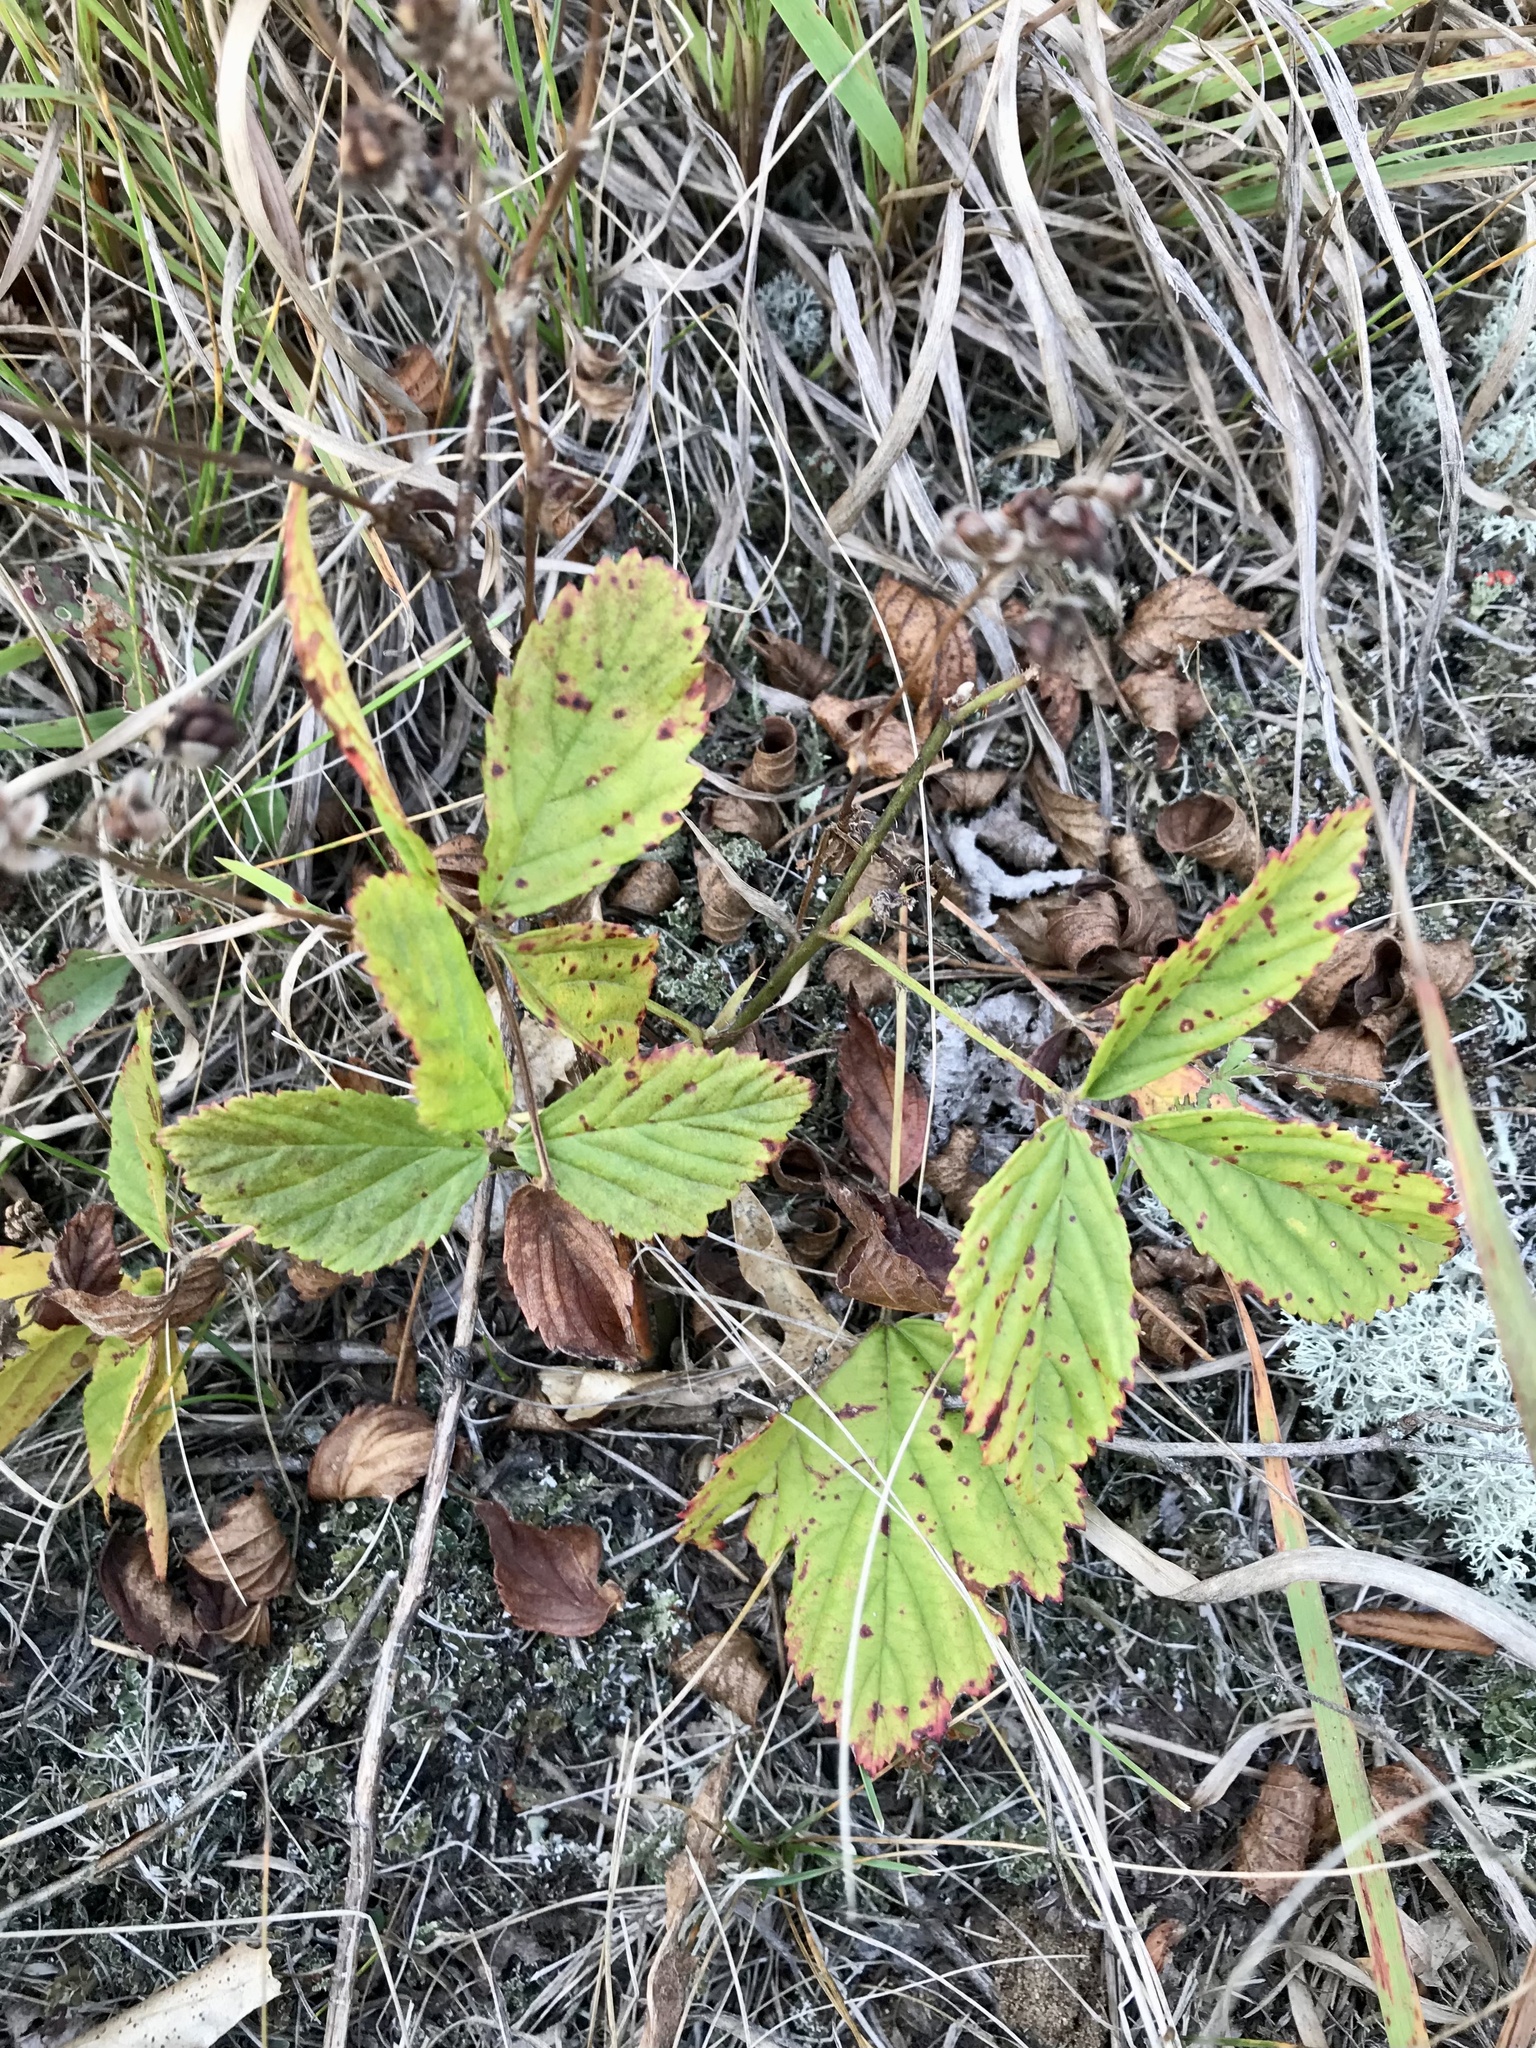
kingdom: Plantae
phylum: Tracheophyta
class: Magnoliopsida
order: Rosales
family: Rosaceae
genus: Rubus
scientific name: Rubus uniformis
